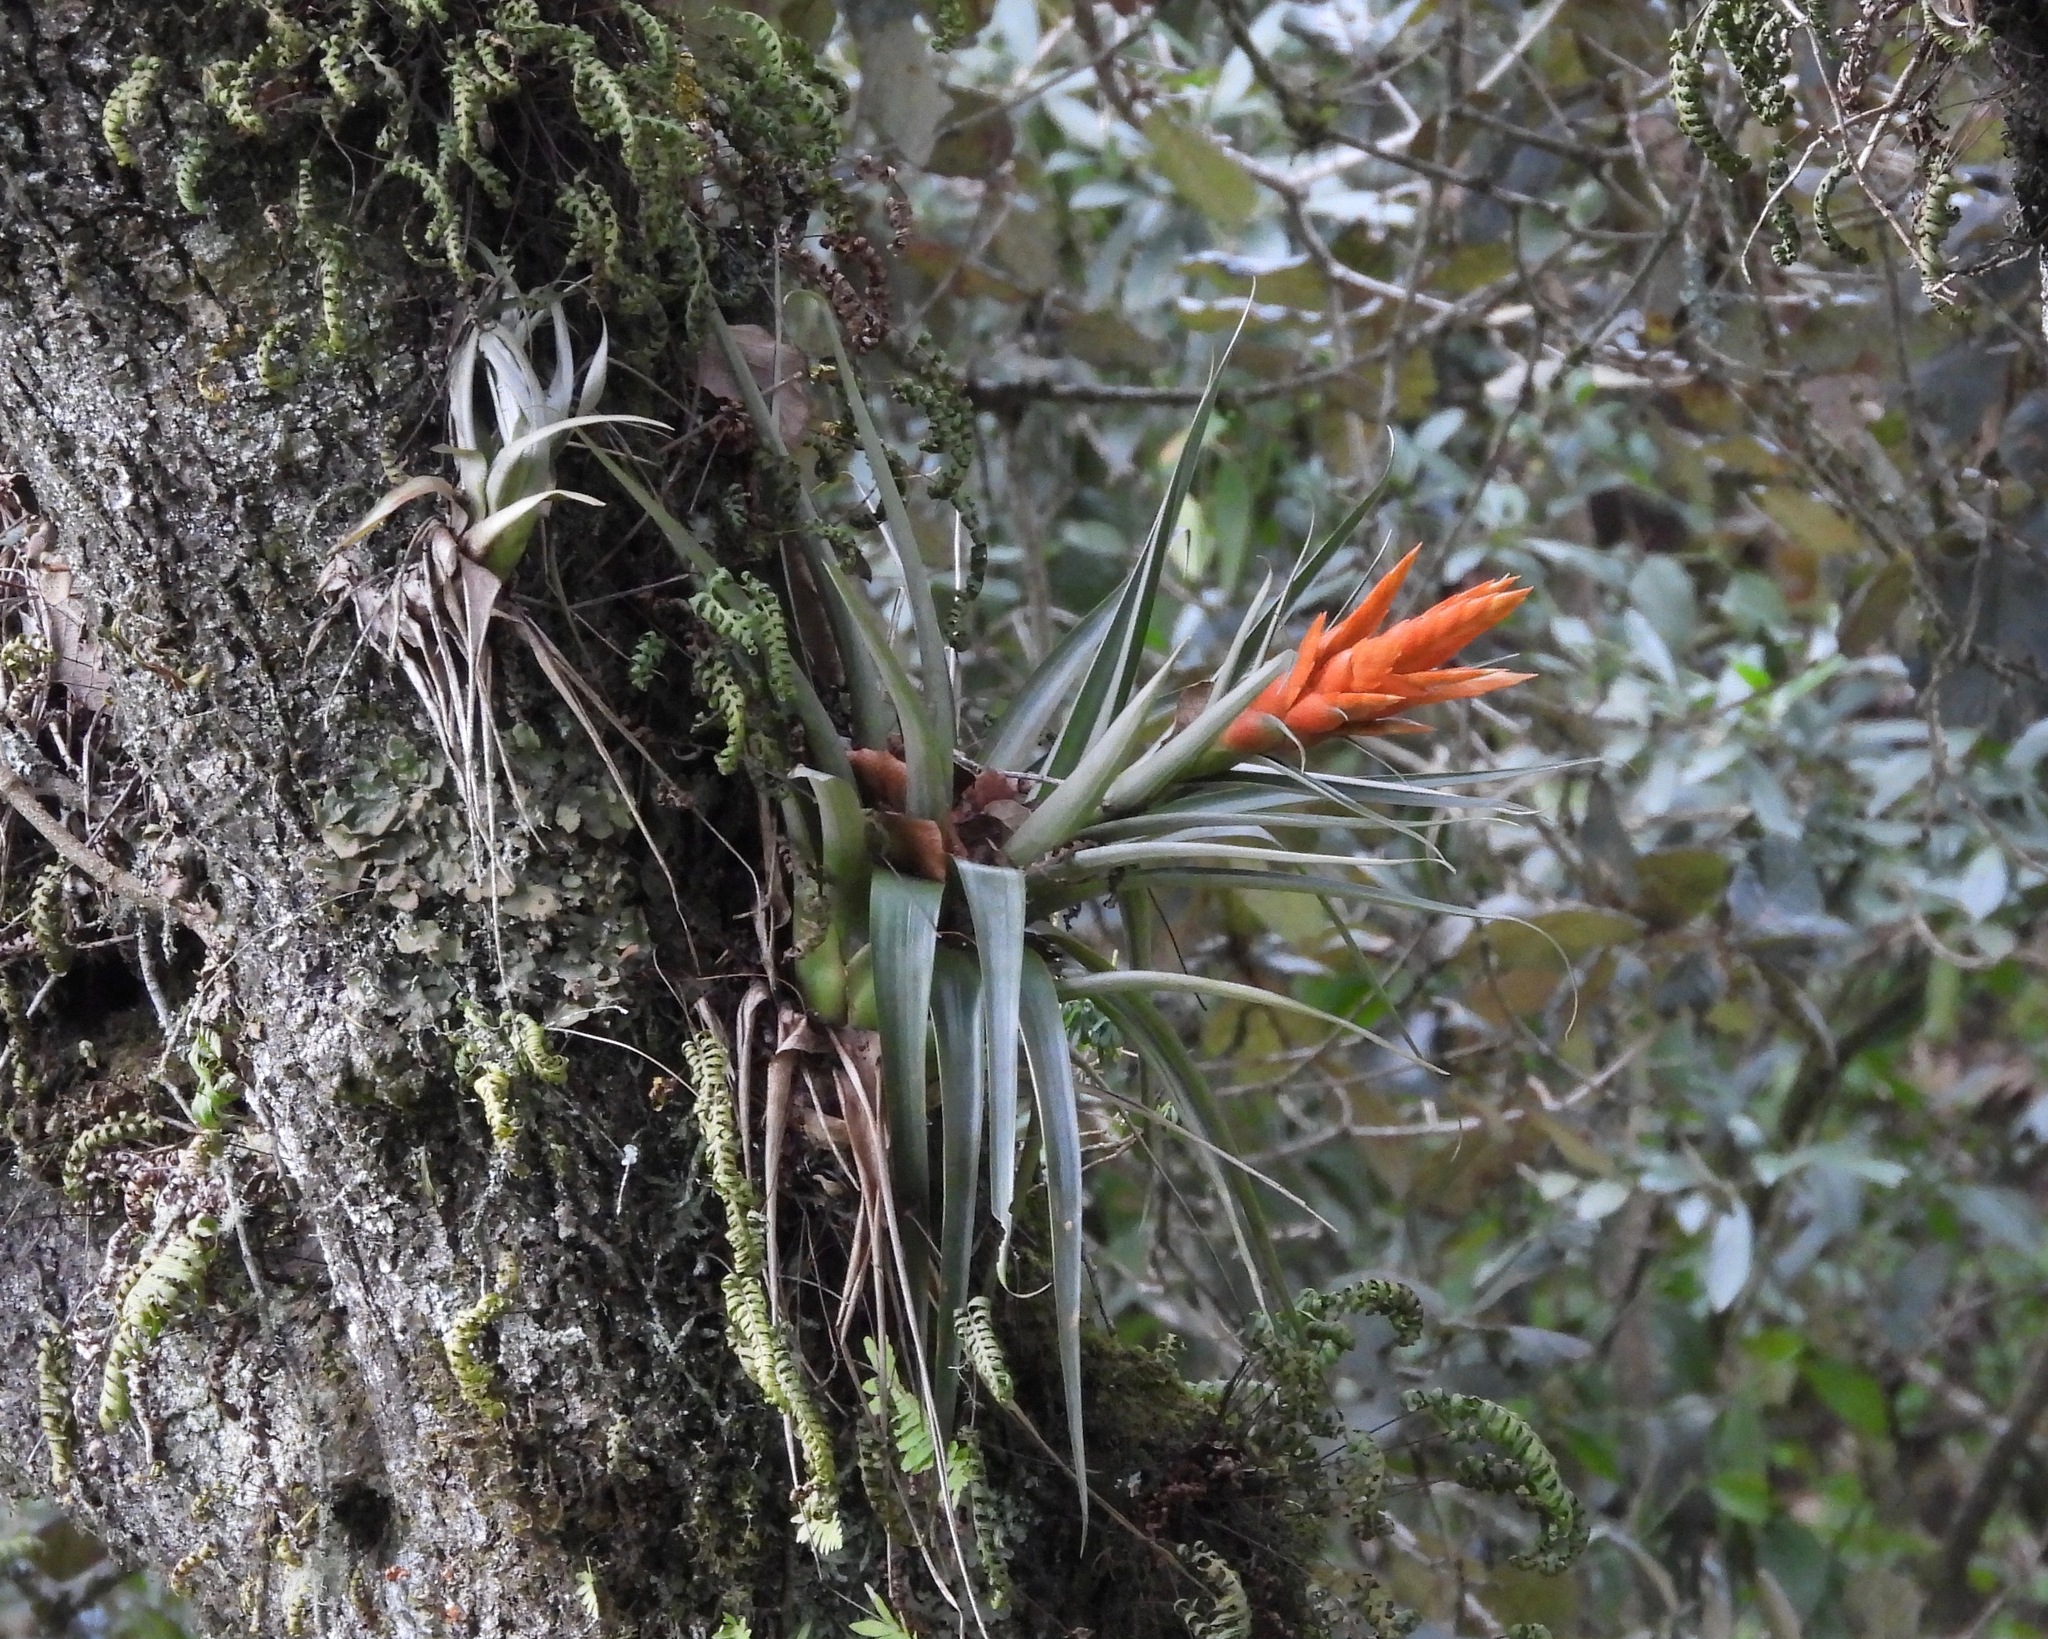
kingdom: Plantae
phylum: Tracheophyta
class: Liliopsida
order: Poales
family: Bromeliaceae
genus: Tillandsia
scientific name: Tillandsia ponderosa
